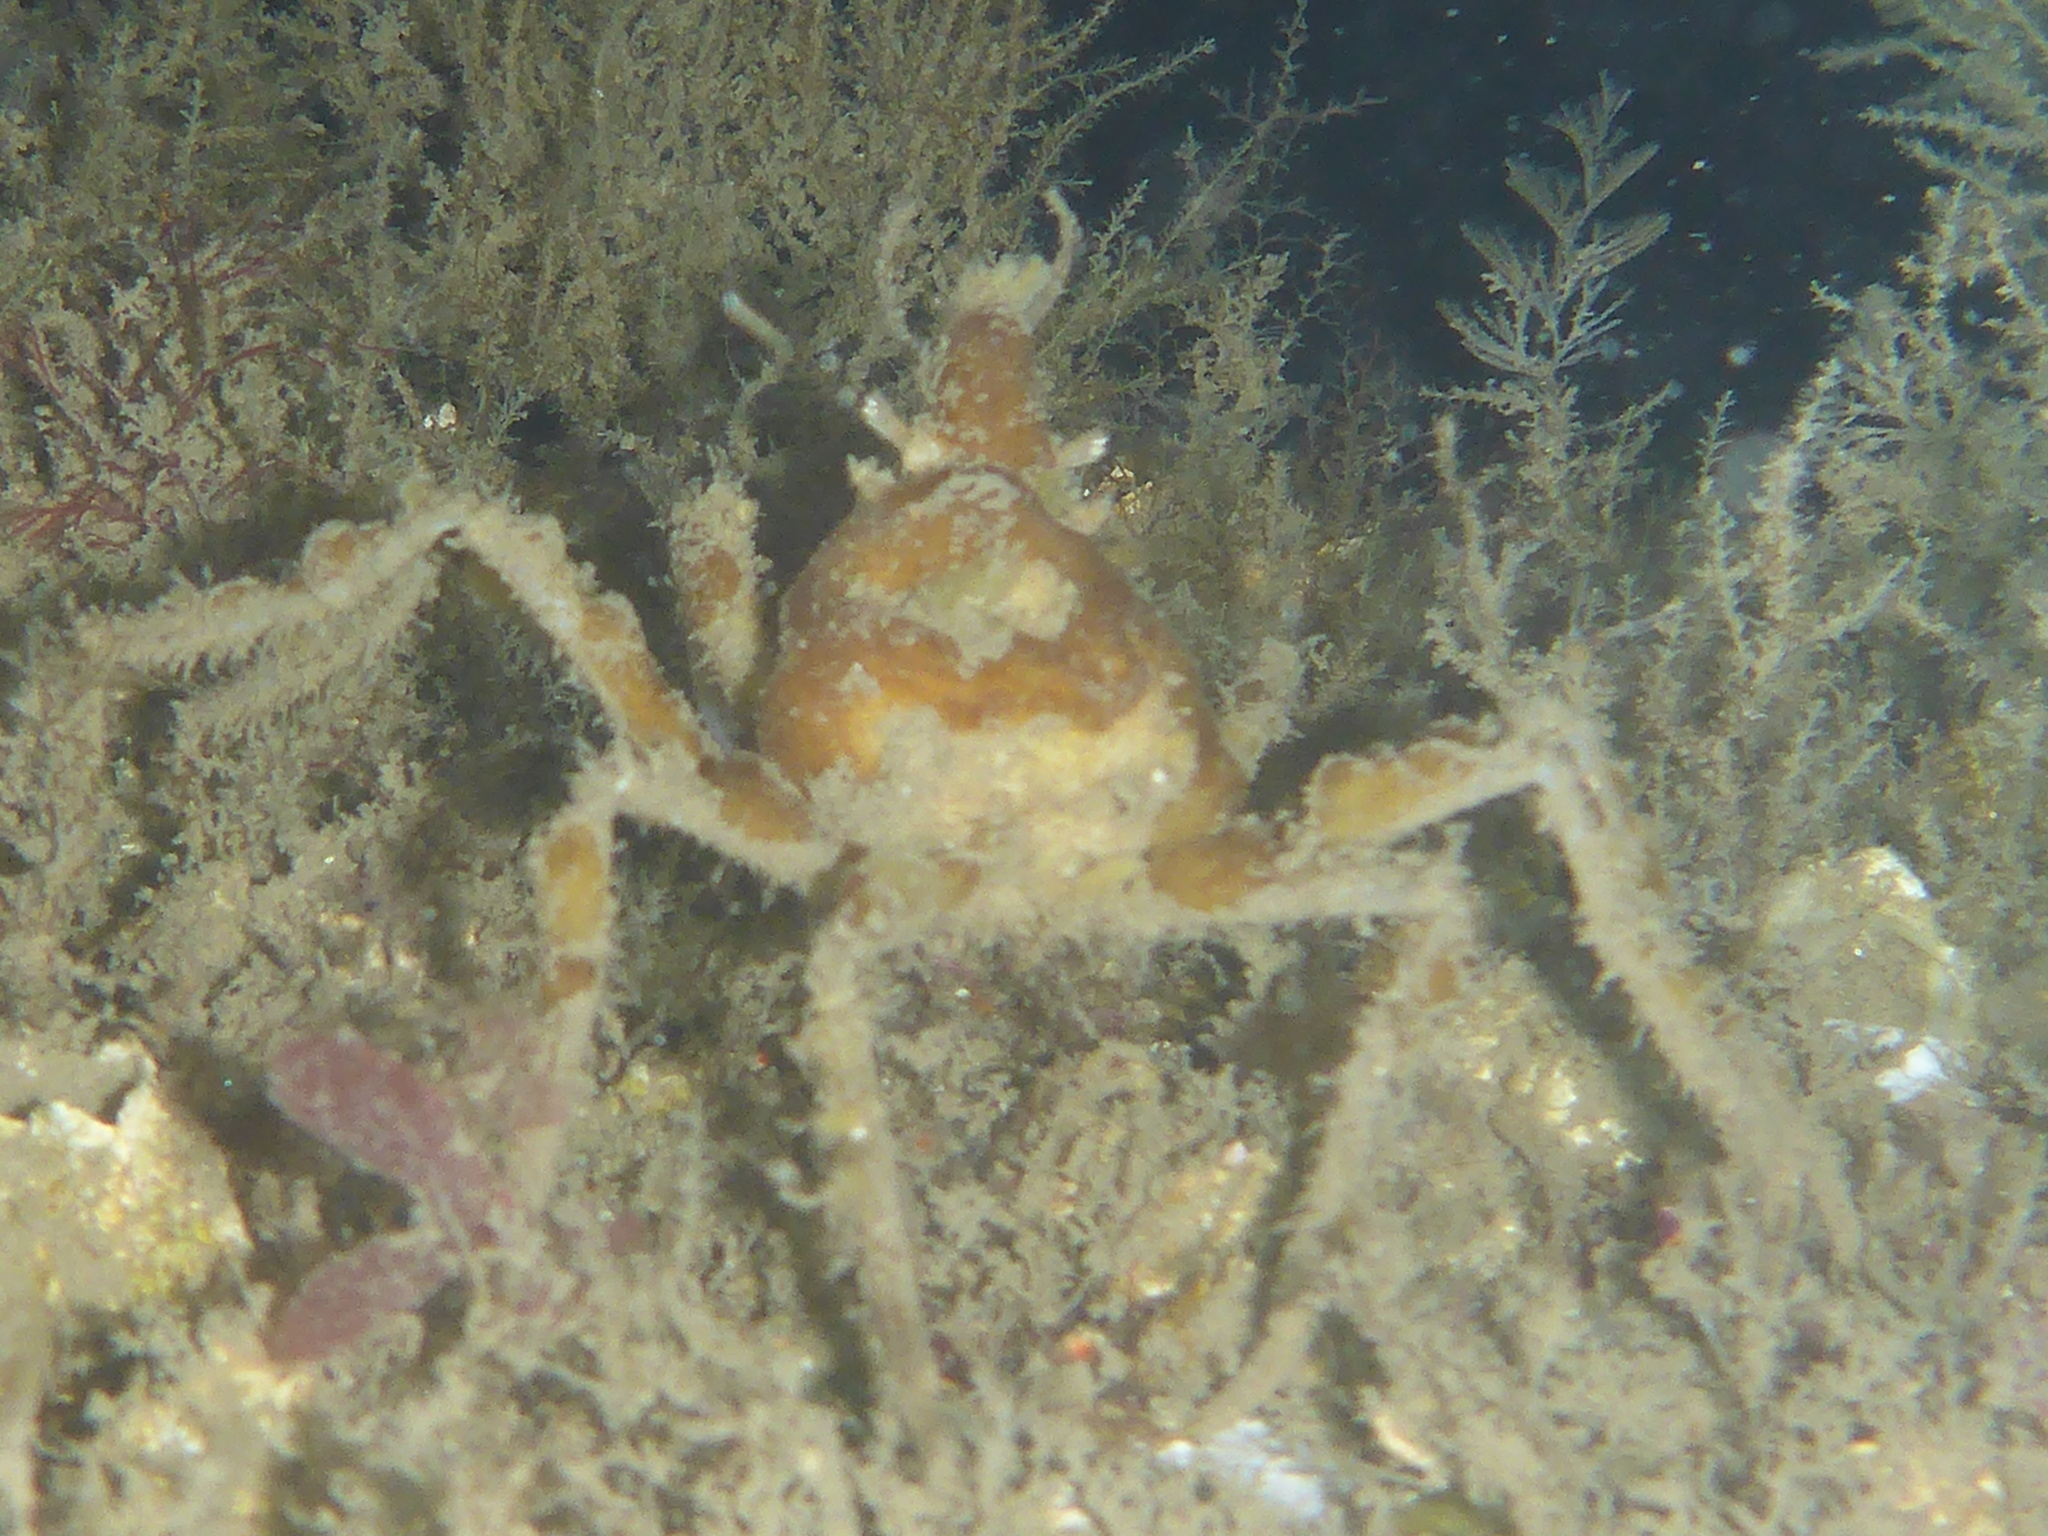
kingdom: Animalia
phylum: Arthropoda
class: Malacostraca
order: Decapoda
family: Oregoniidae
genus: Oregonia
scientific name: Oregonia gracilis
